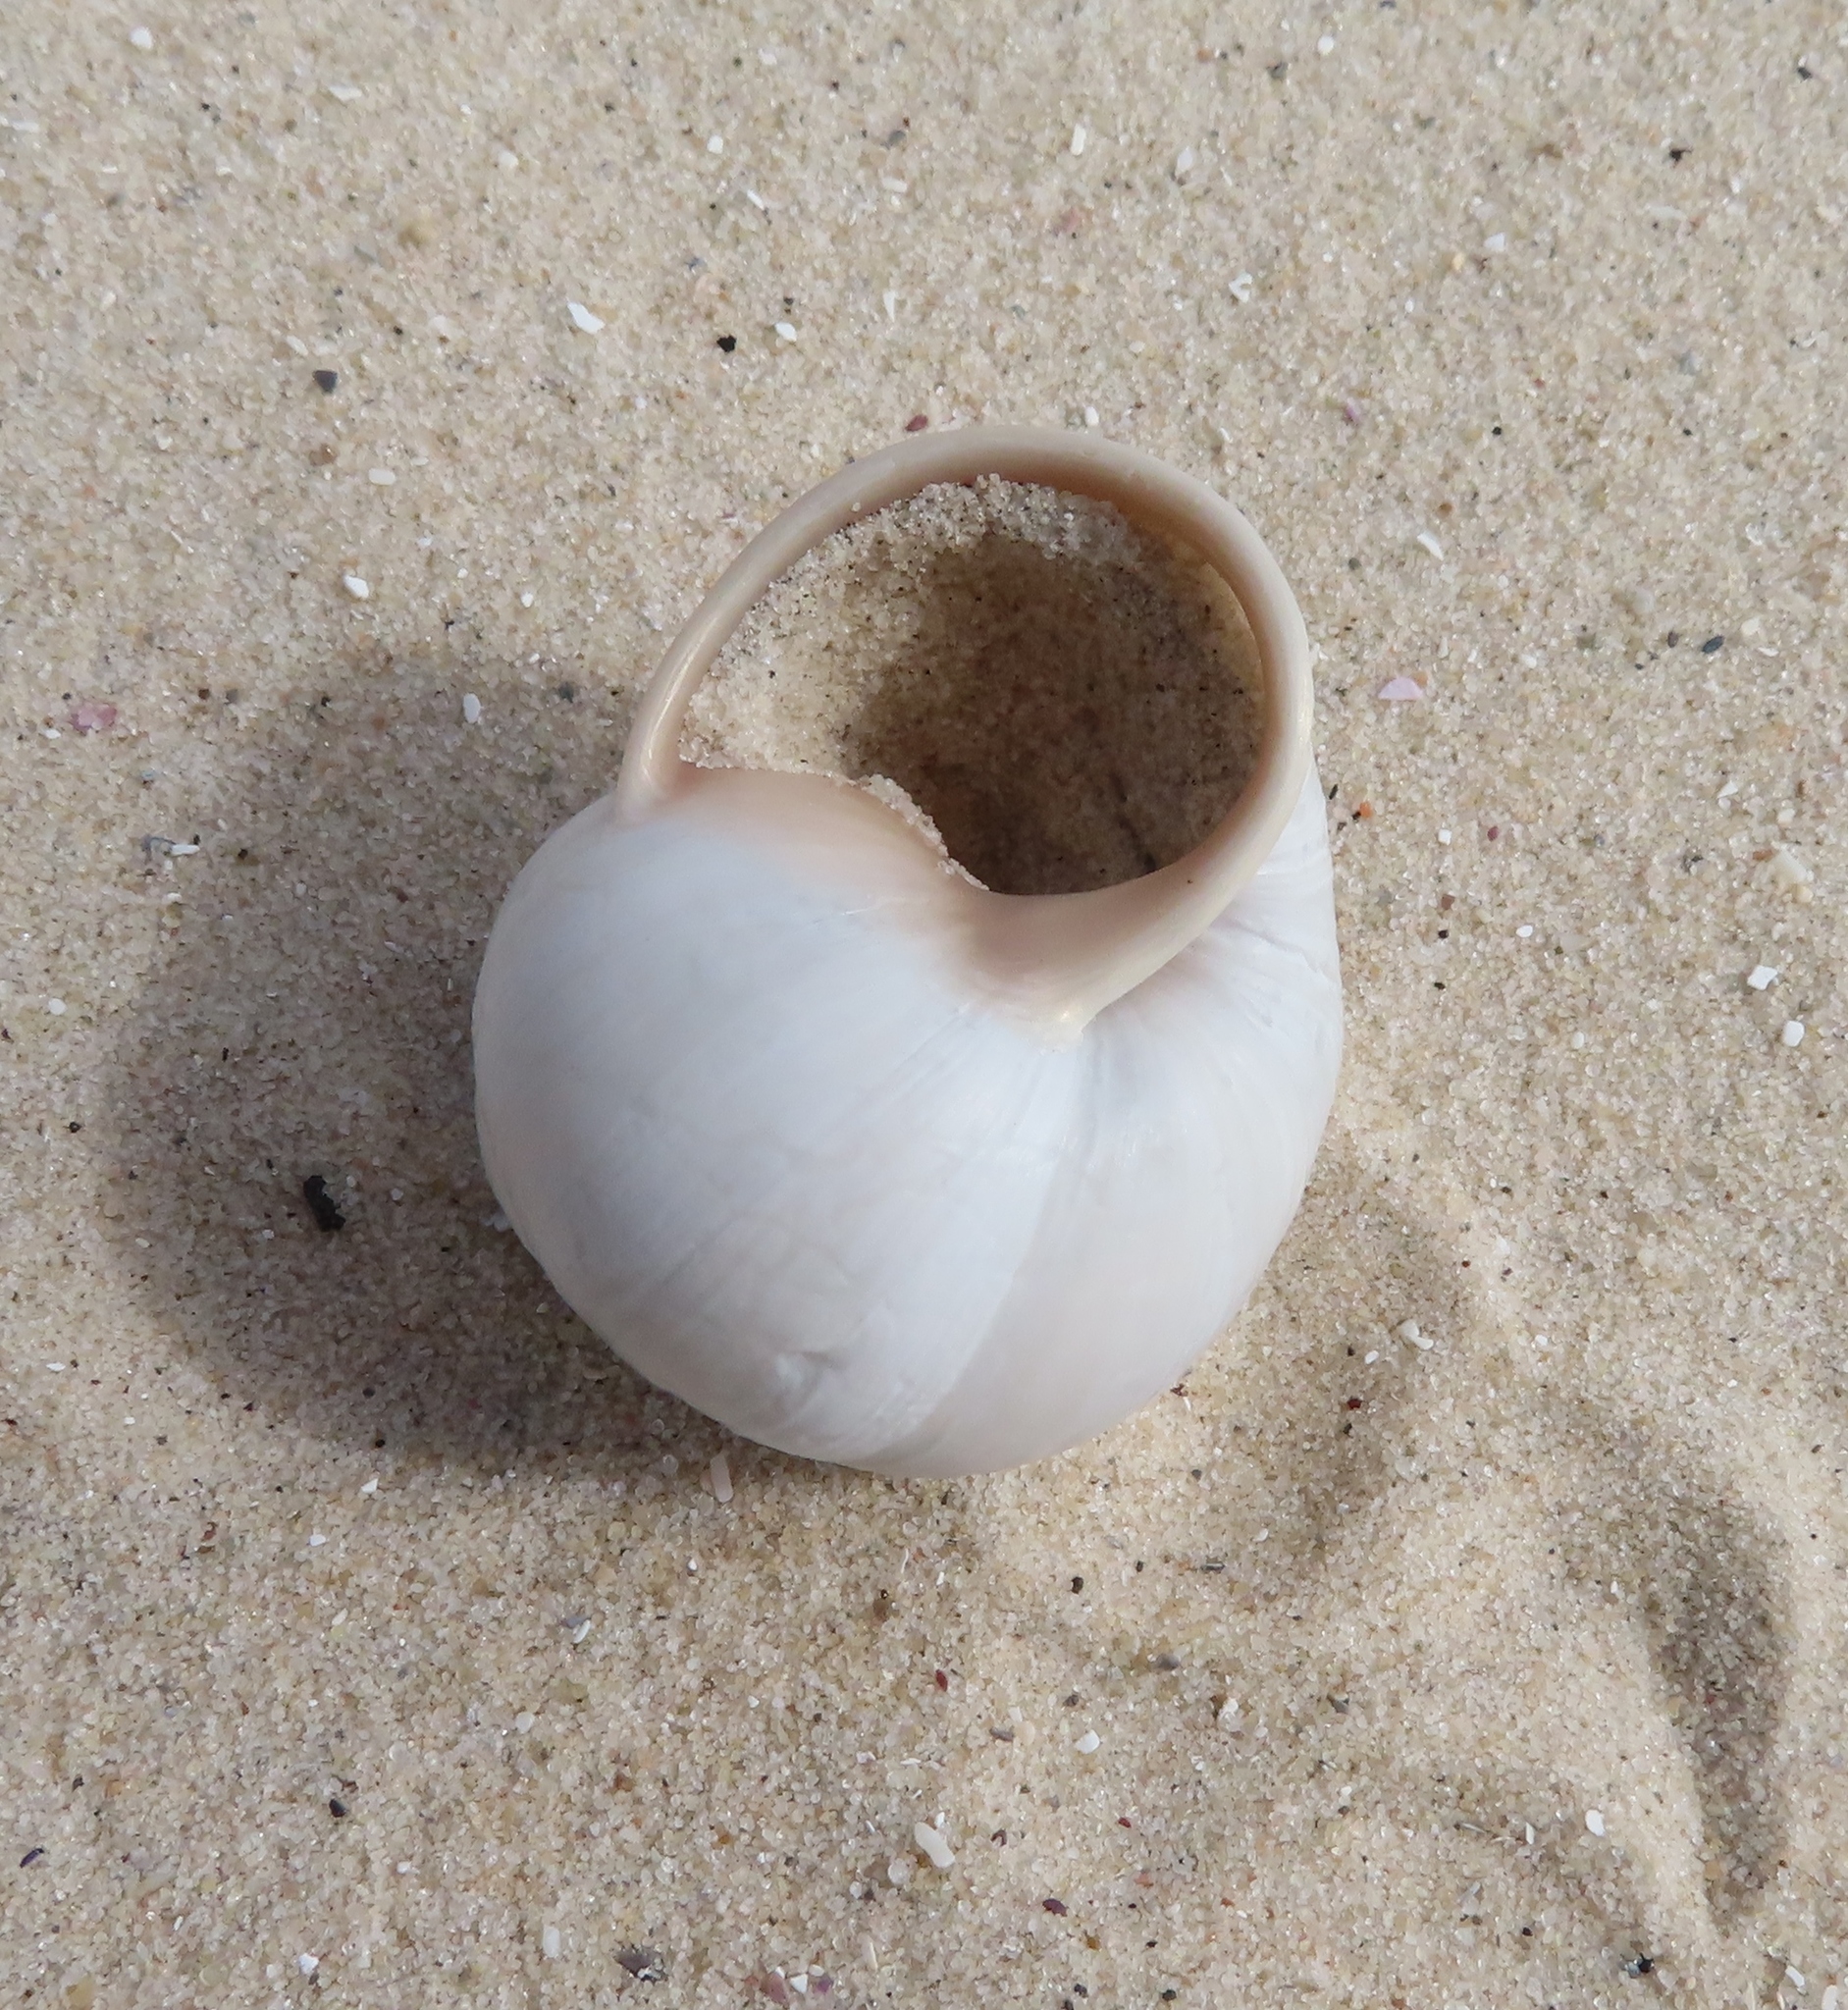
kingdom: Animalia
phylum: Mollusca
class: Gastropoda
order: Stylommatophora
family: Dorcasiidae
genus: Trigonephrus
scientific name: Trigonephrus globulus
